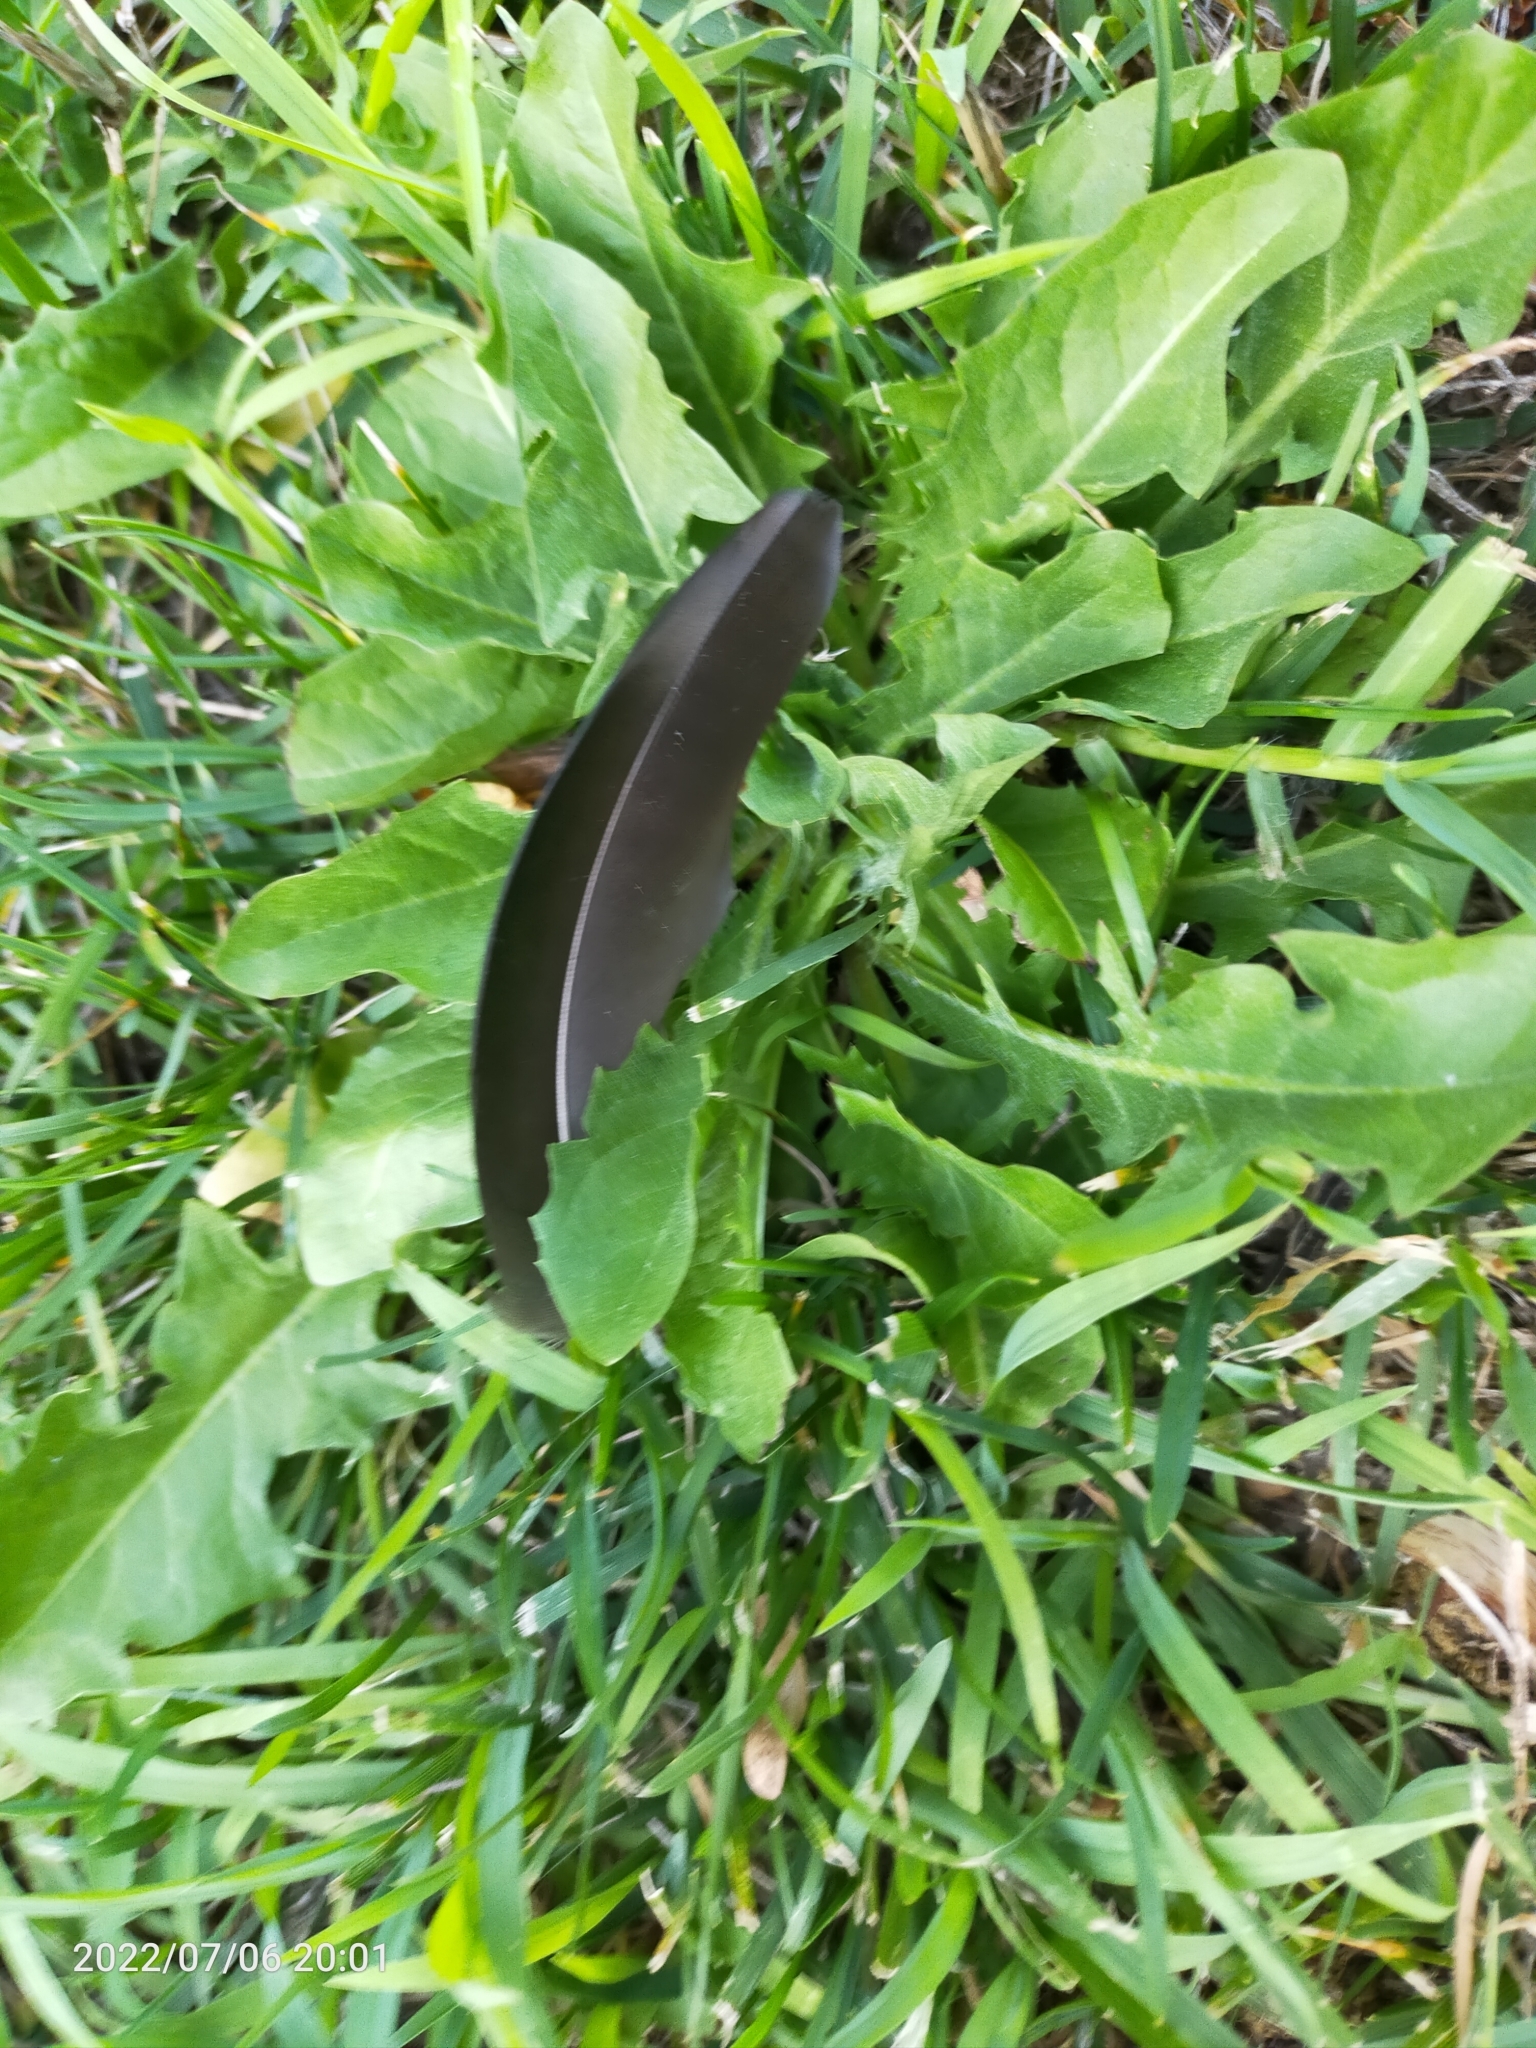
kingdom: Animalia
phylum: Chordata
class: Aves
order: Passeriformes
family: Corvidae
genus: Corvus
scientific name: Corvus
